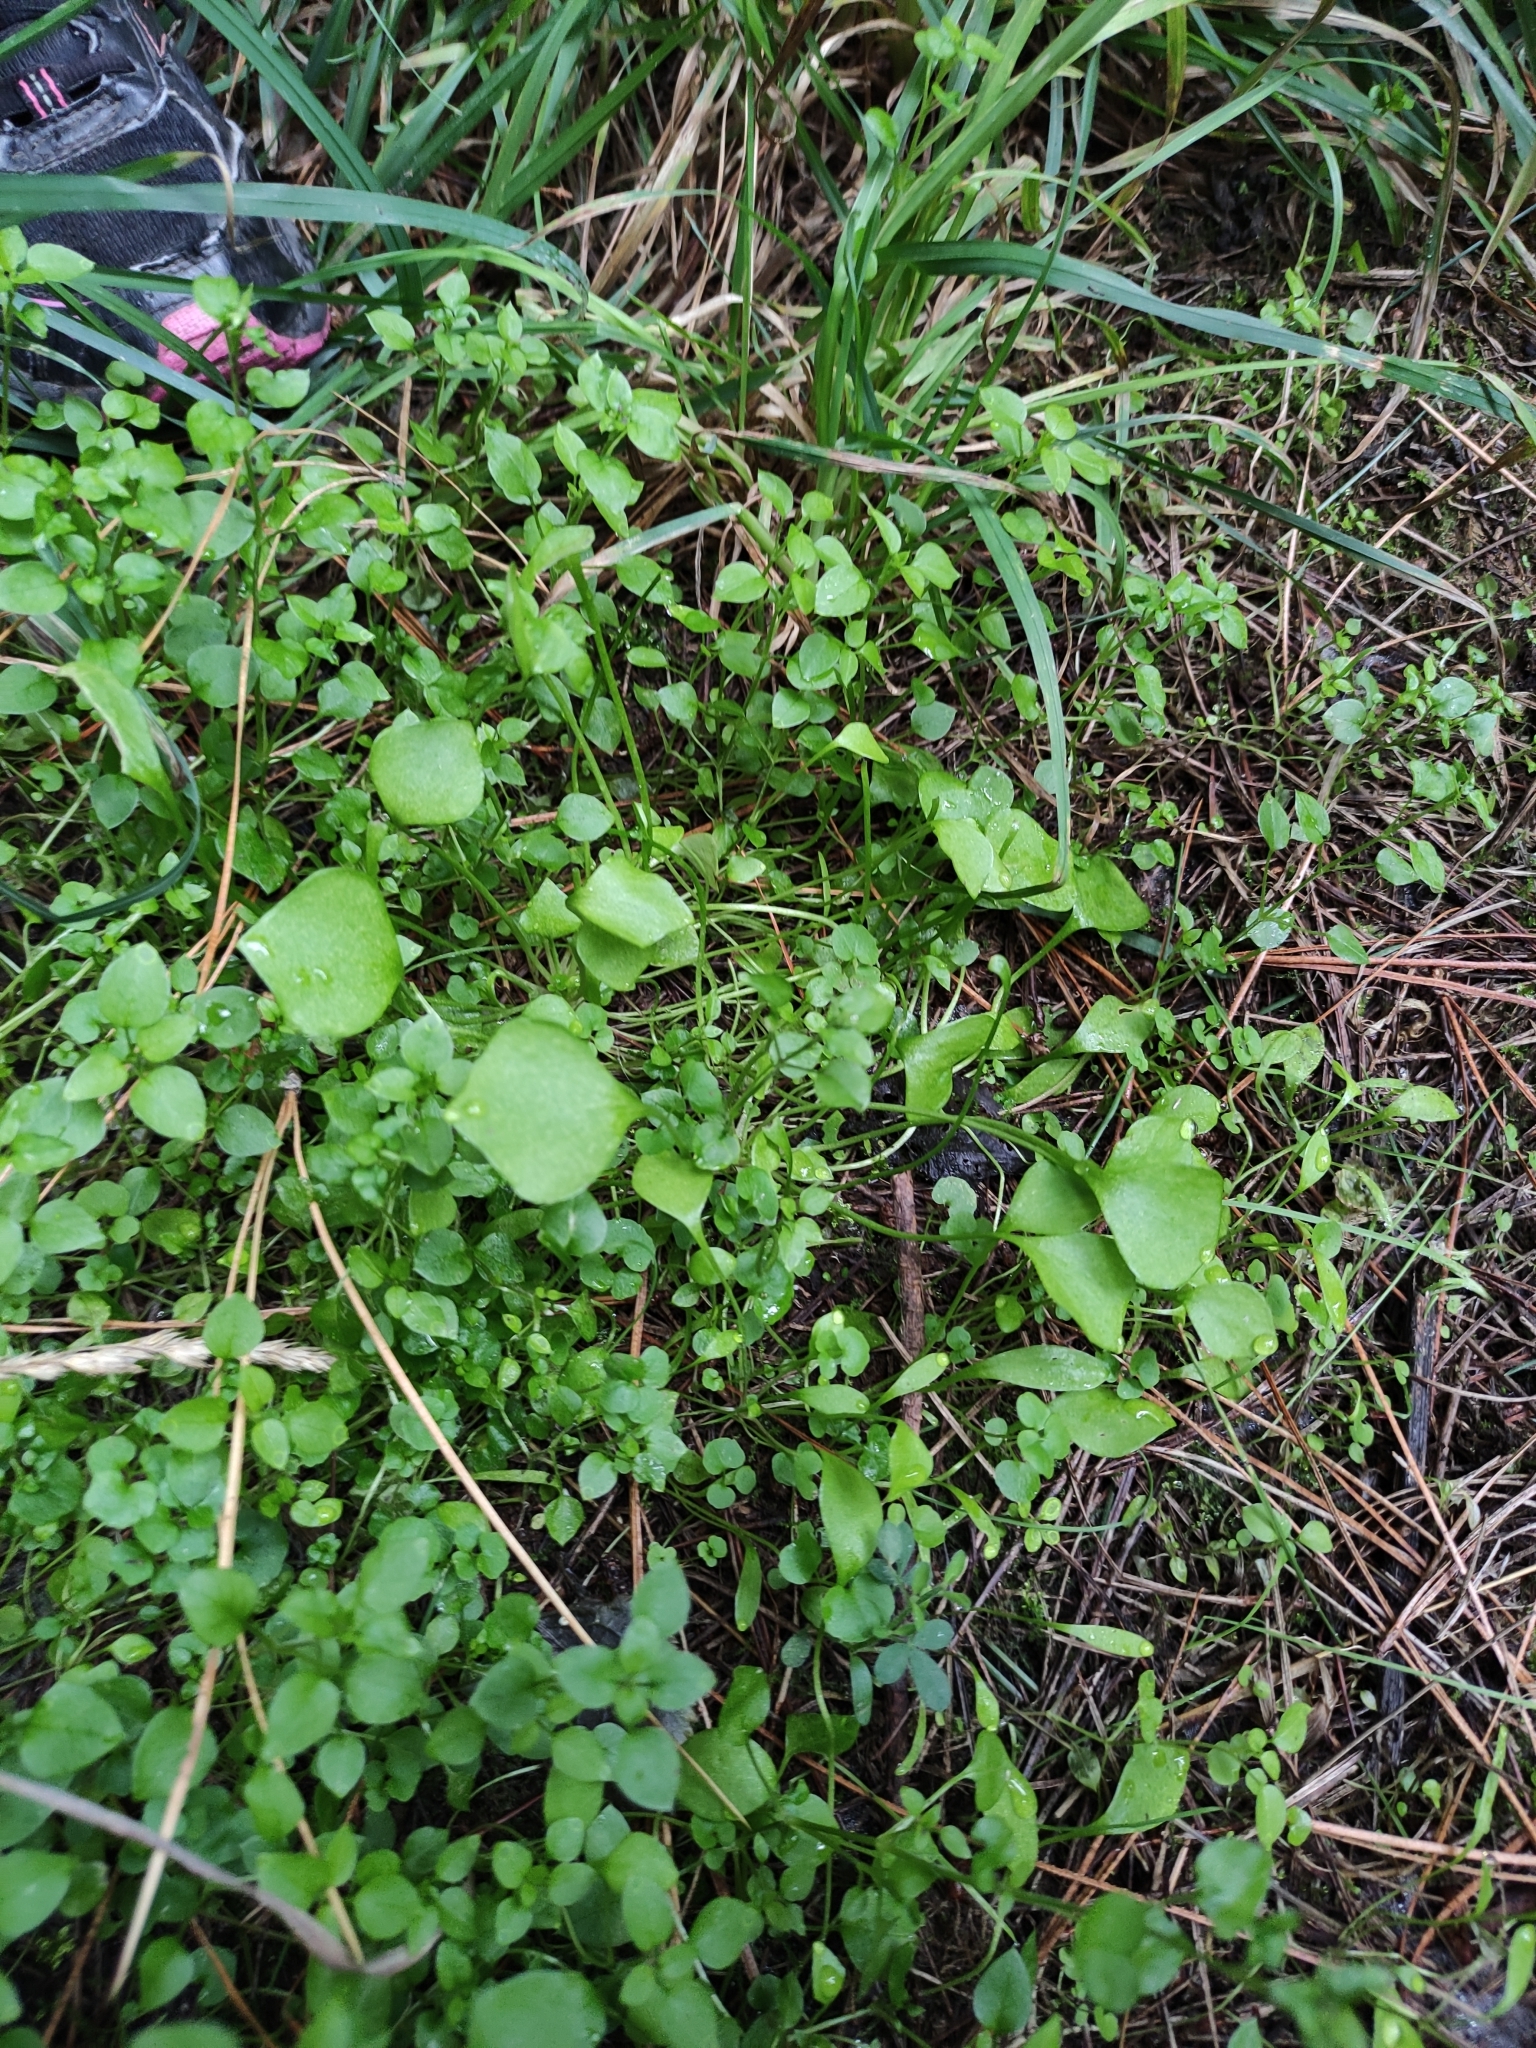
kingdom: Plantae
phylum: Tracheophyta
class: Magnoliopsida
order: Caryophyllales
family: Montiaceae
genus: Claytonia
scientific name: Claytonia perfoliata
